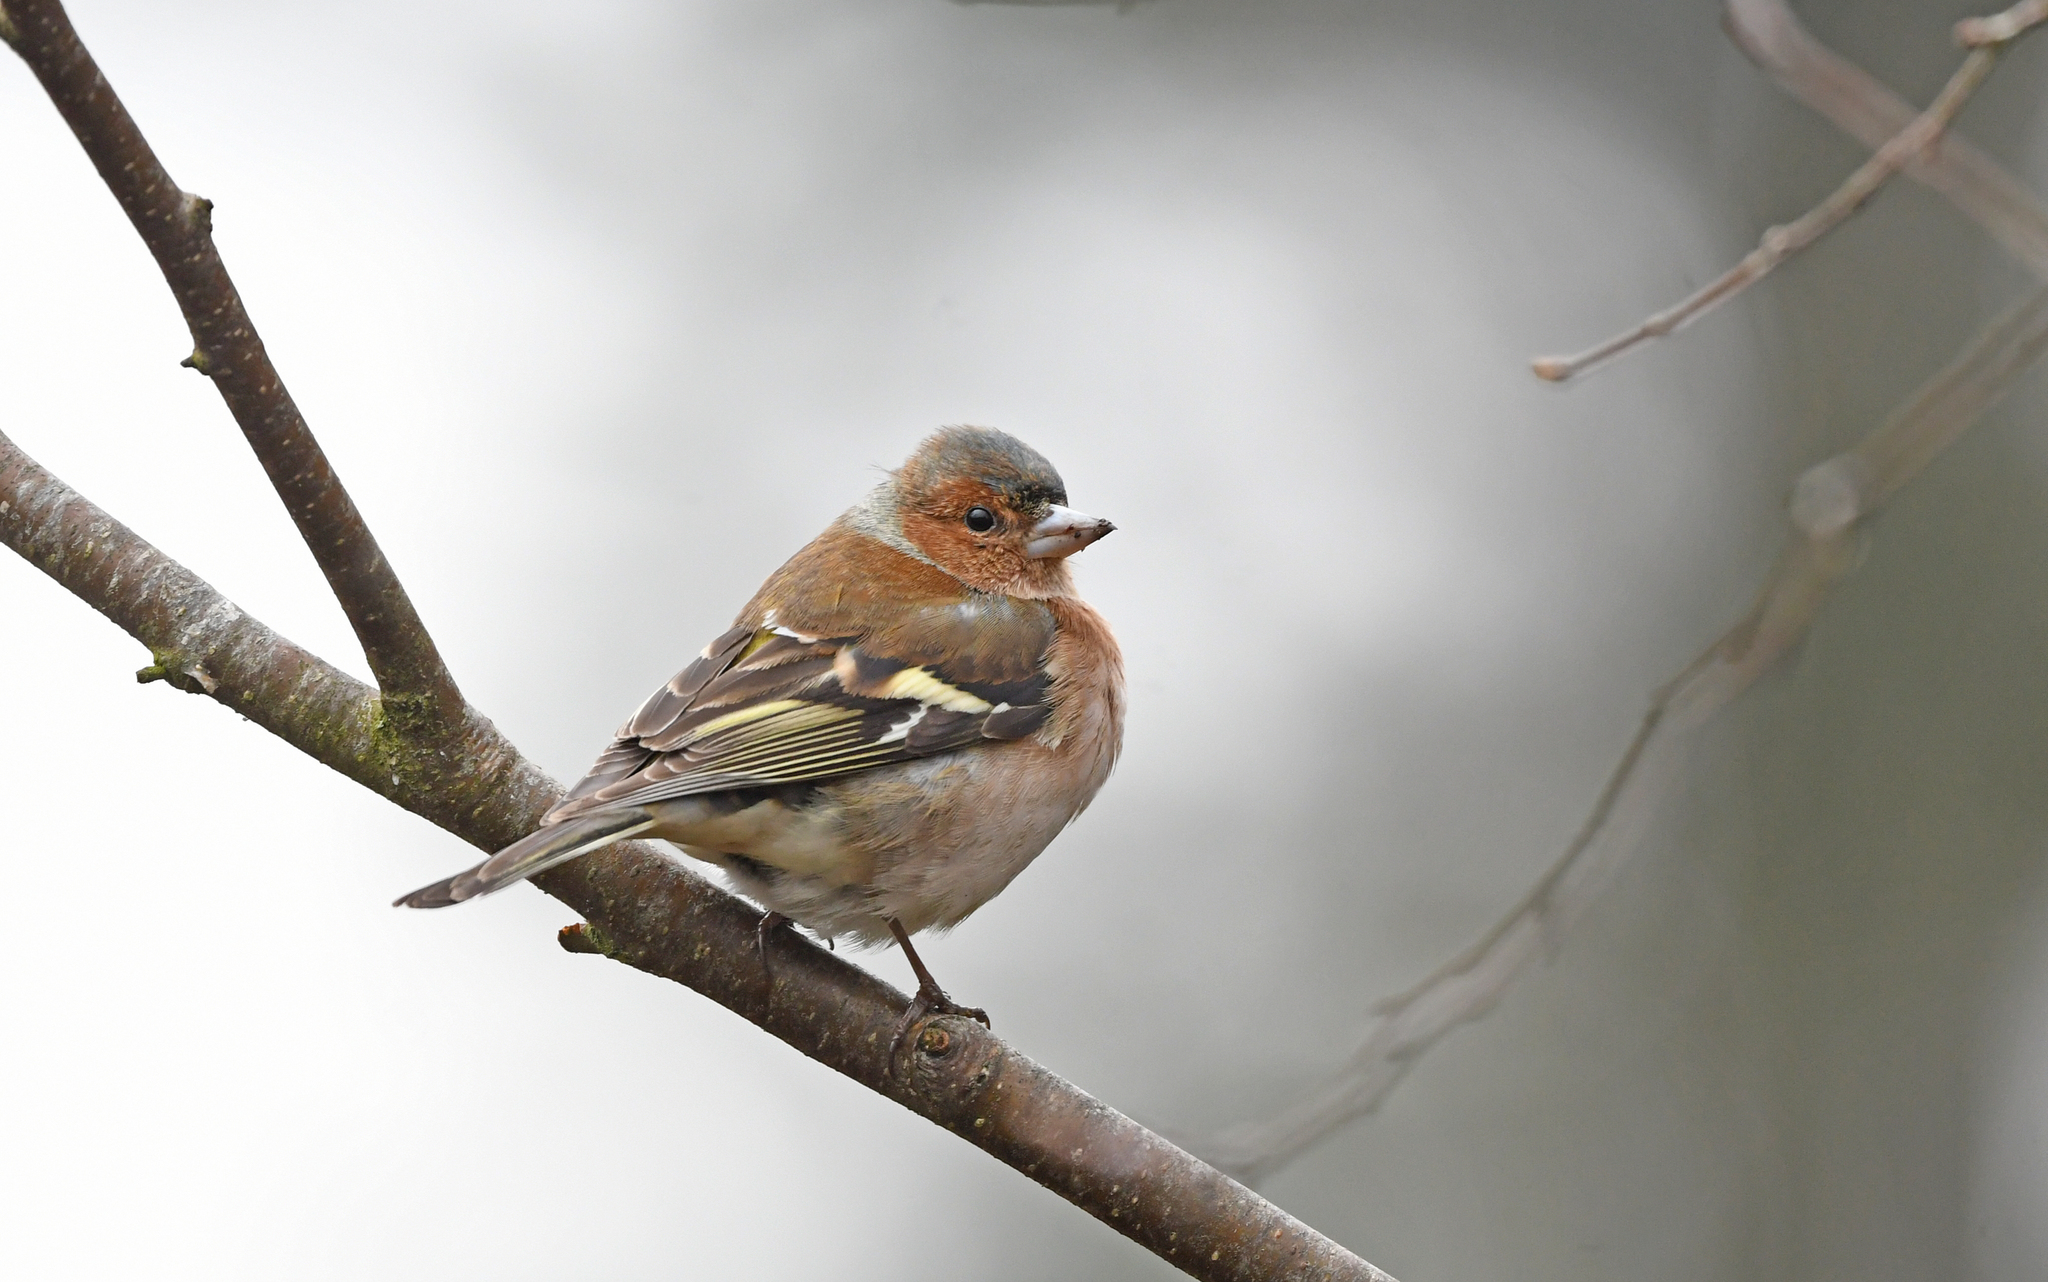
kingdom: Animalia
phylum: Chordata
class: Aves
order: Passeriformes
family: Fringillidae
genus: Fringilla
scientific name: Fringilla coelebs
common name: Common chaffinch
